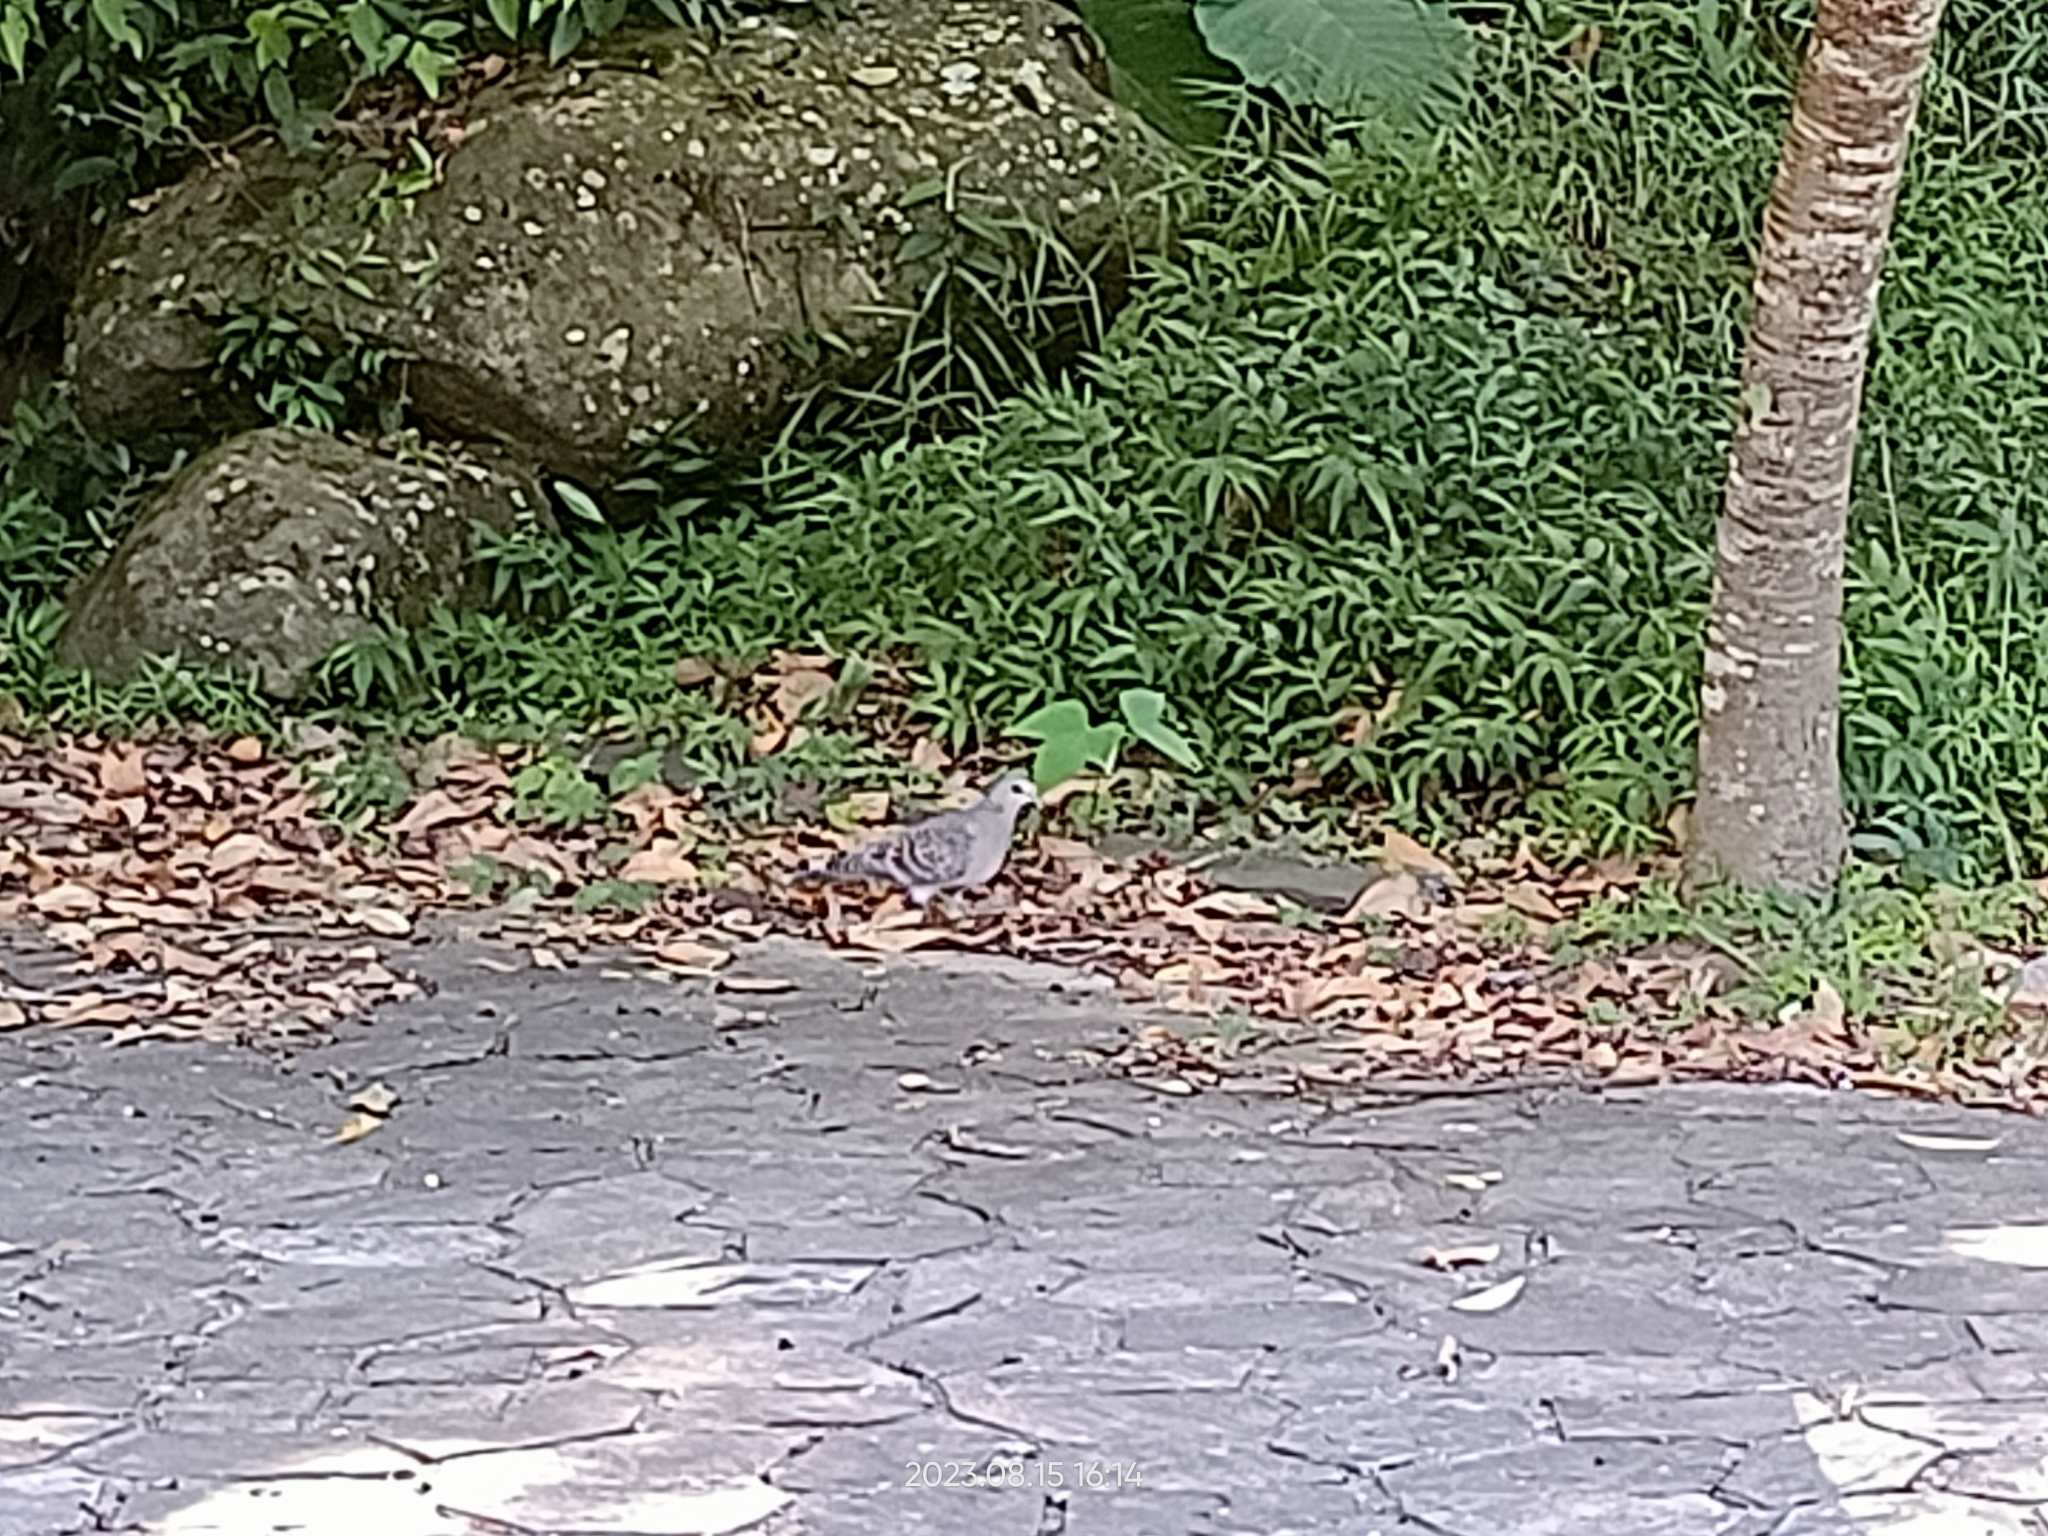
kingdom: Animalia
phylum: Chordata
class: Aves
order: Columbiformes
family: Columbidae
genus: Streptopelia
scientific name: Streptopelia orientalis
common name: Oriental turtle dove
